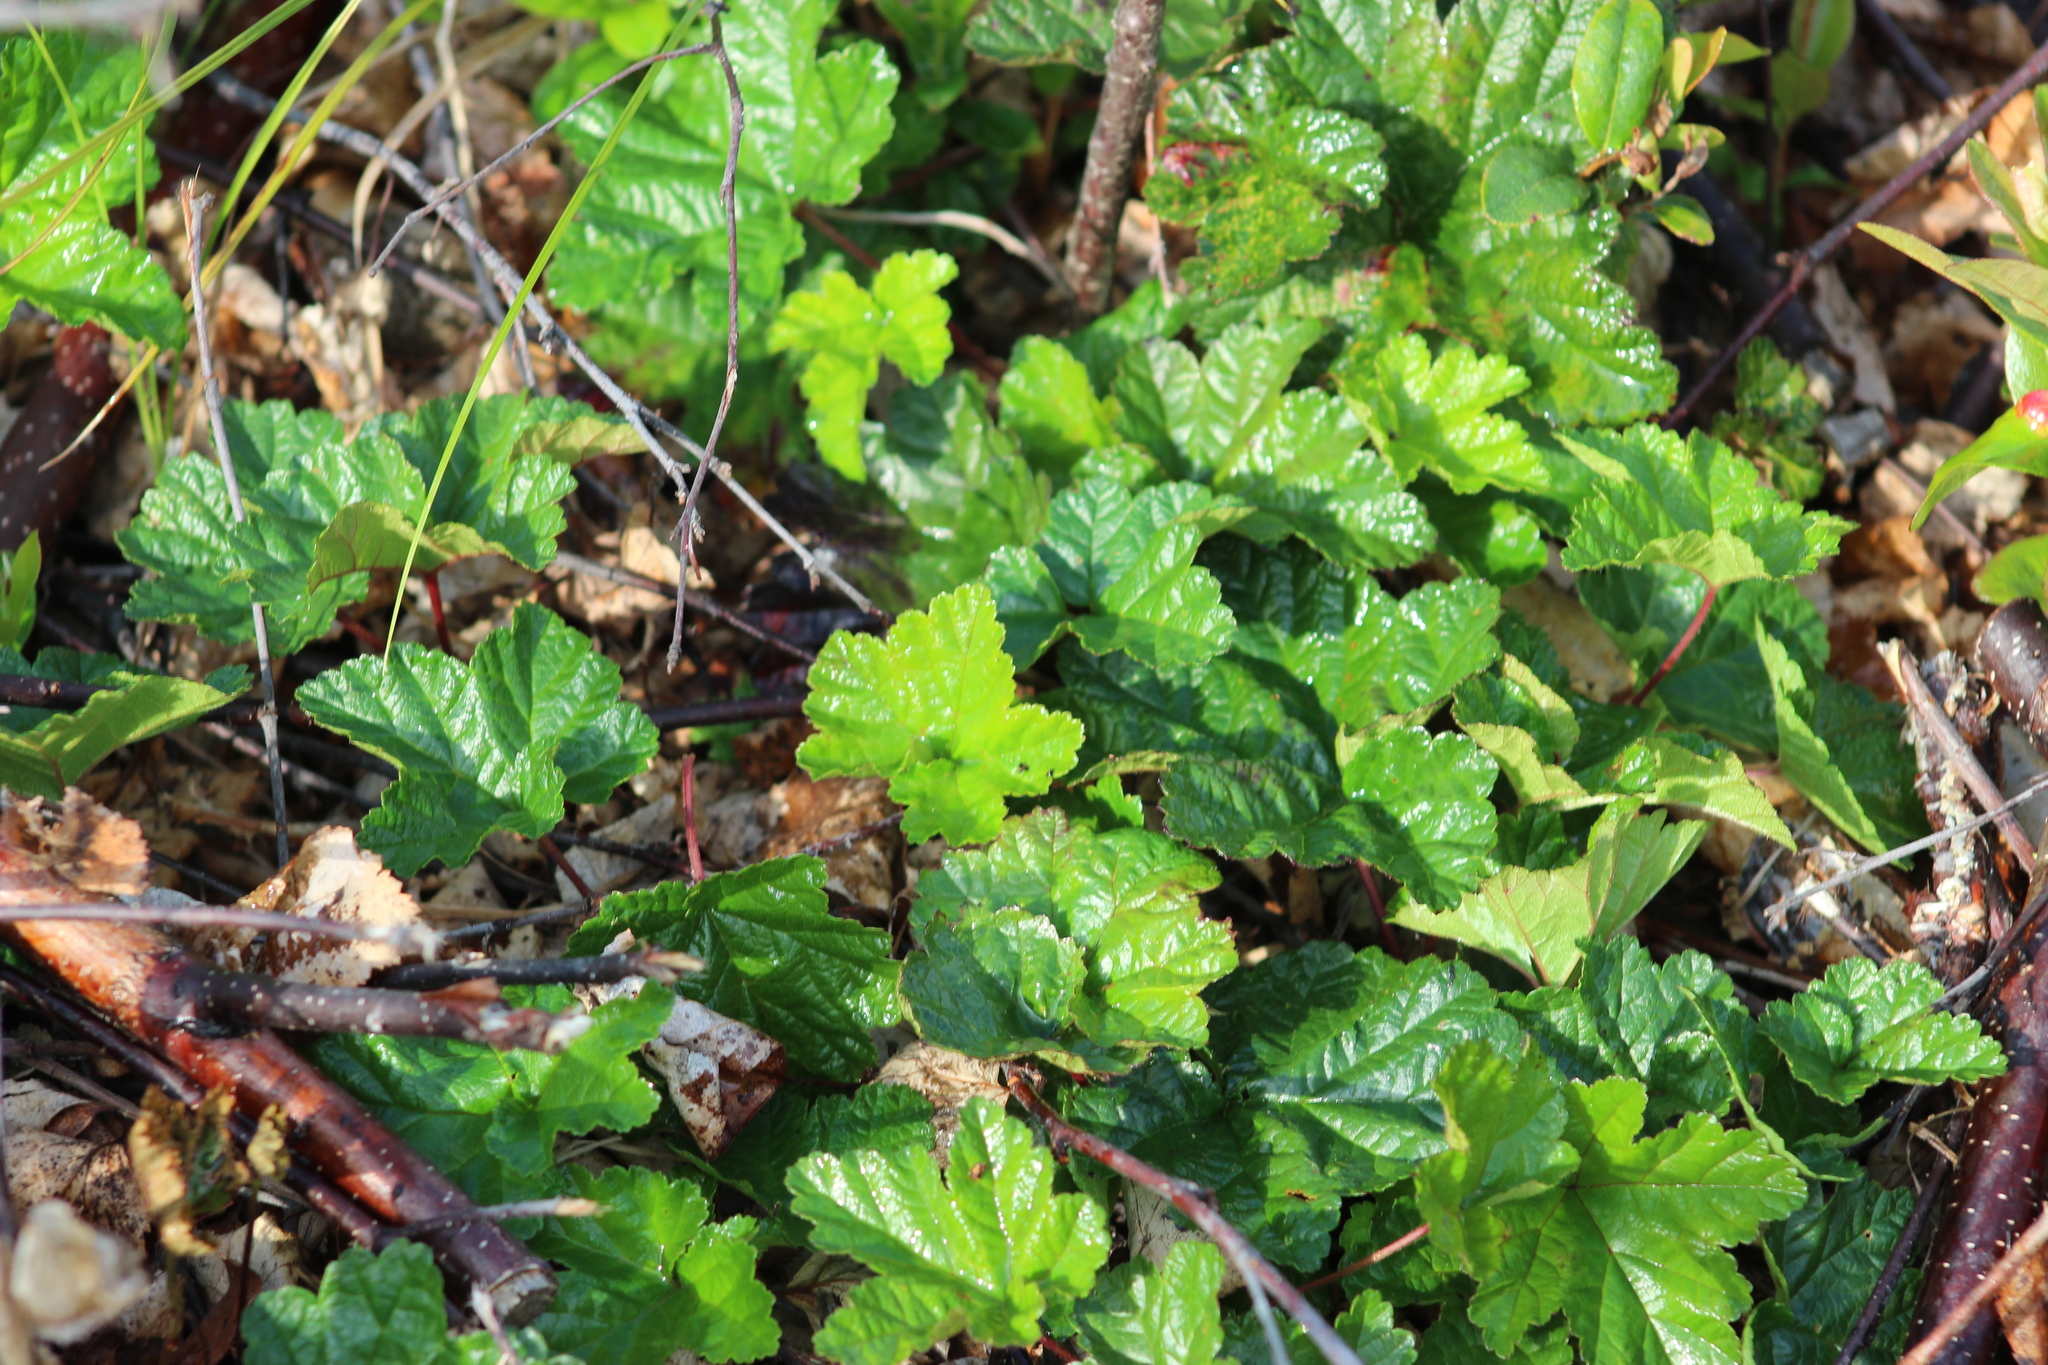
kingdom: Plantae
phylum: Tracheophyta
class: Magnoliopsida
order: Rosales
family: Rosaceae
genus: Rubus
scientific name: Rubus chamaemorus
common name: Cloudberry
